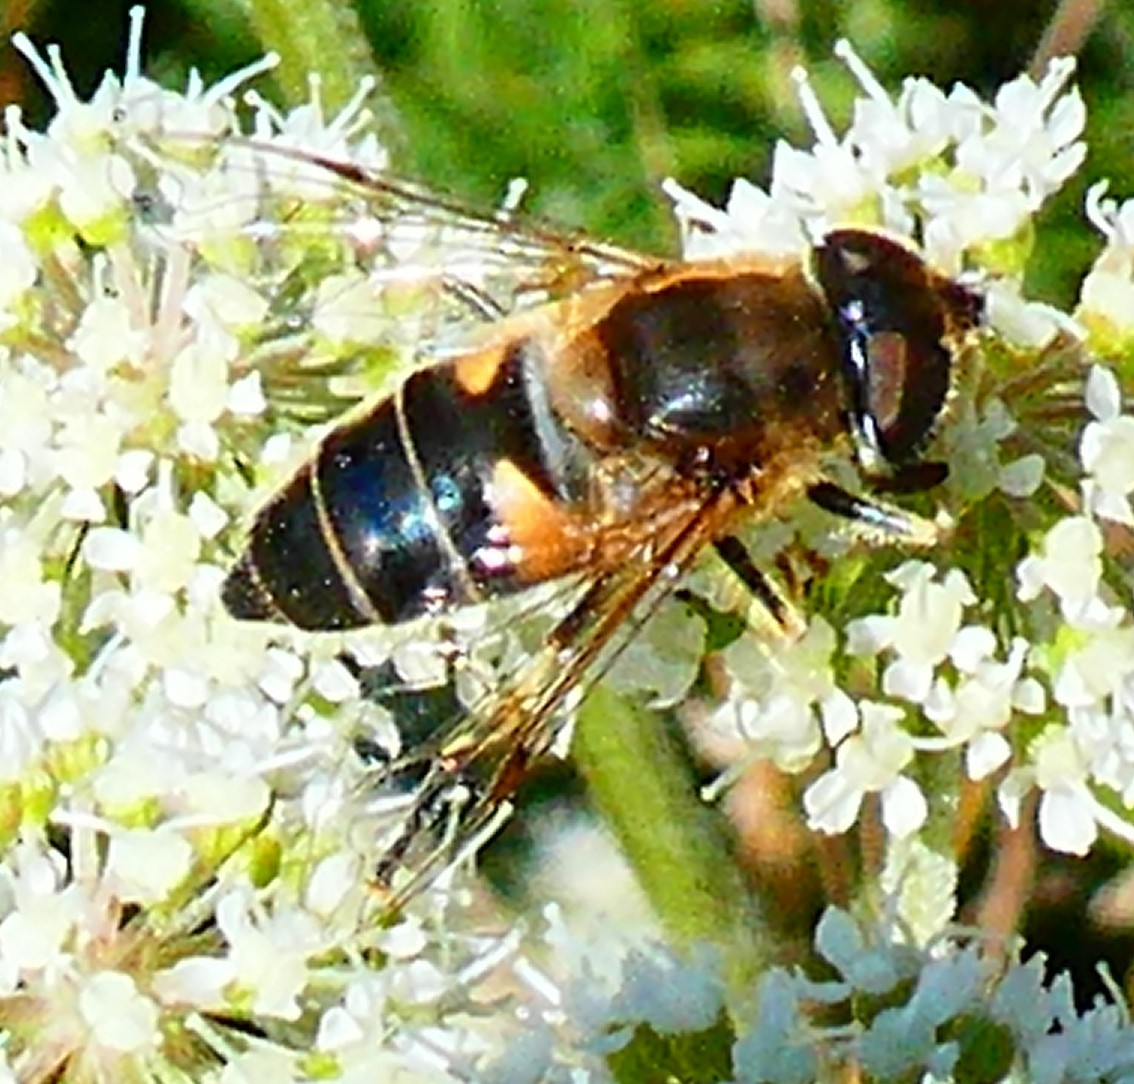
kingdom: Animalia
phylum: Arthropoda
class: Insecta
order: Diptera
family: Syrphidae
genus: Eristalis
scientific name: Eristalis pertinax
